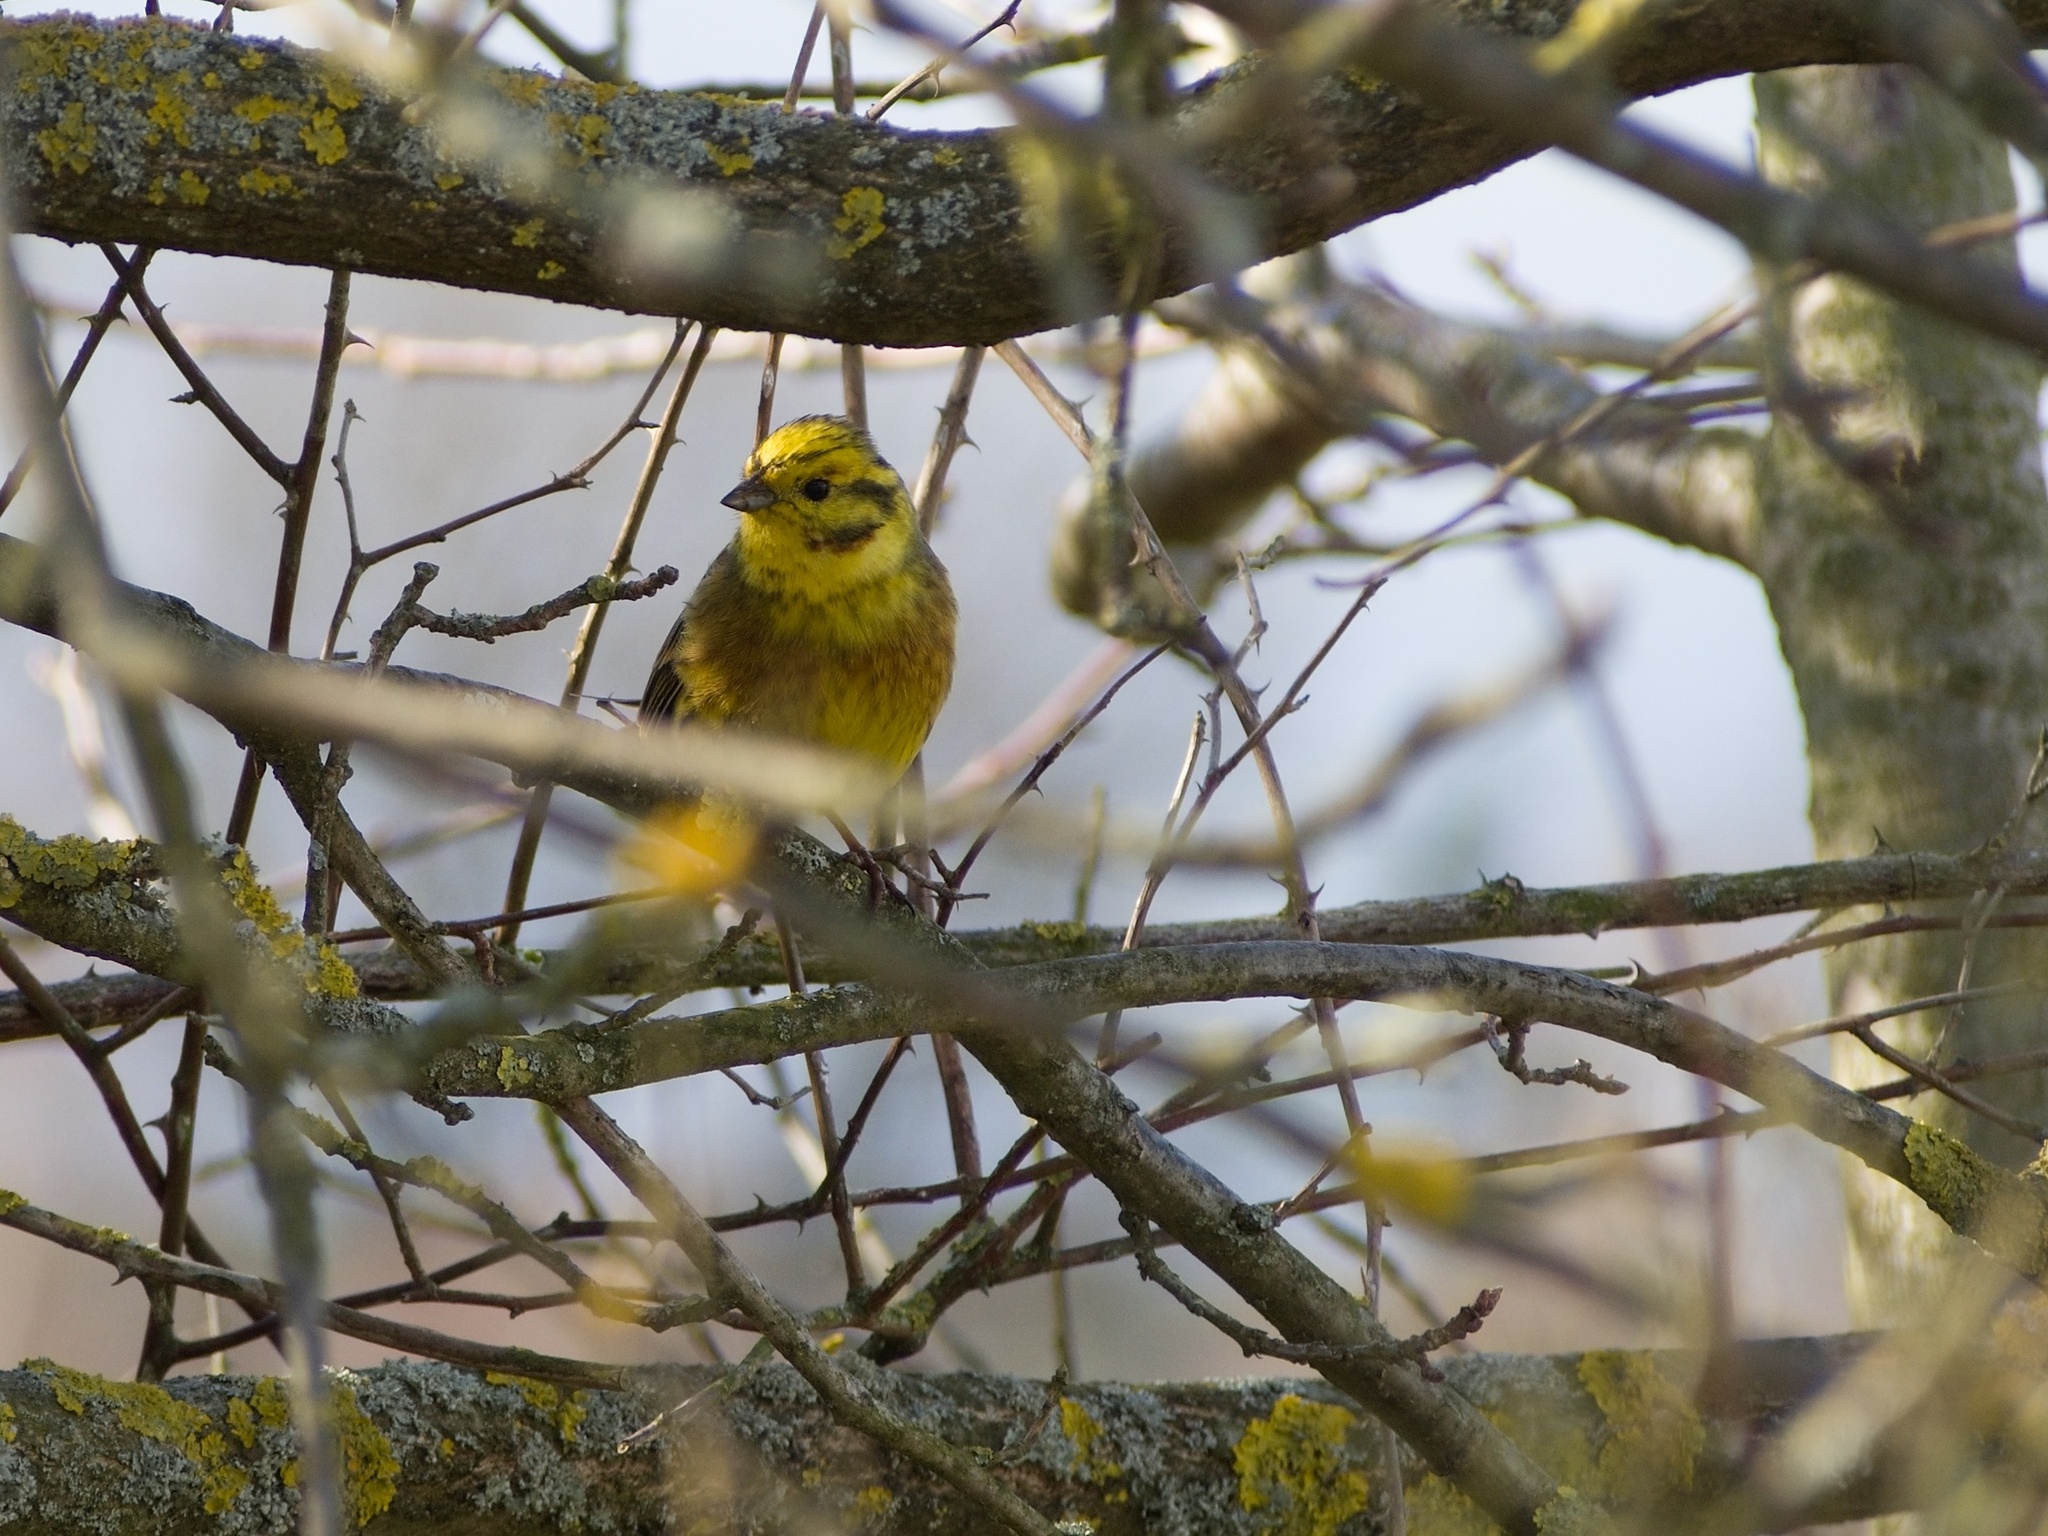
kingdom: Animalia
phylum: Chordata
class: Aves
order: Passeriformes
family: Emberizidae
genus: Emberiza
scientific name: Emberiza citrinella
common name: Yellowhammer
